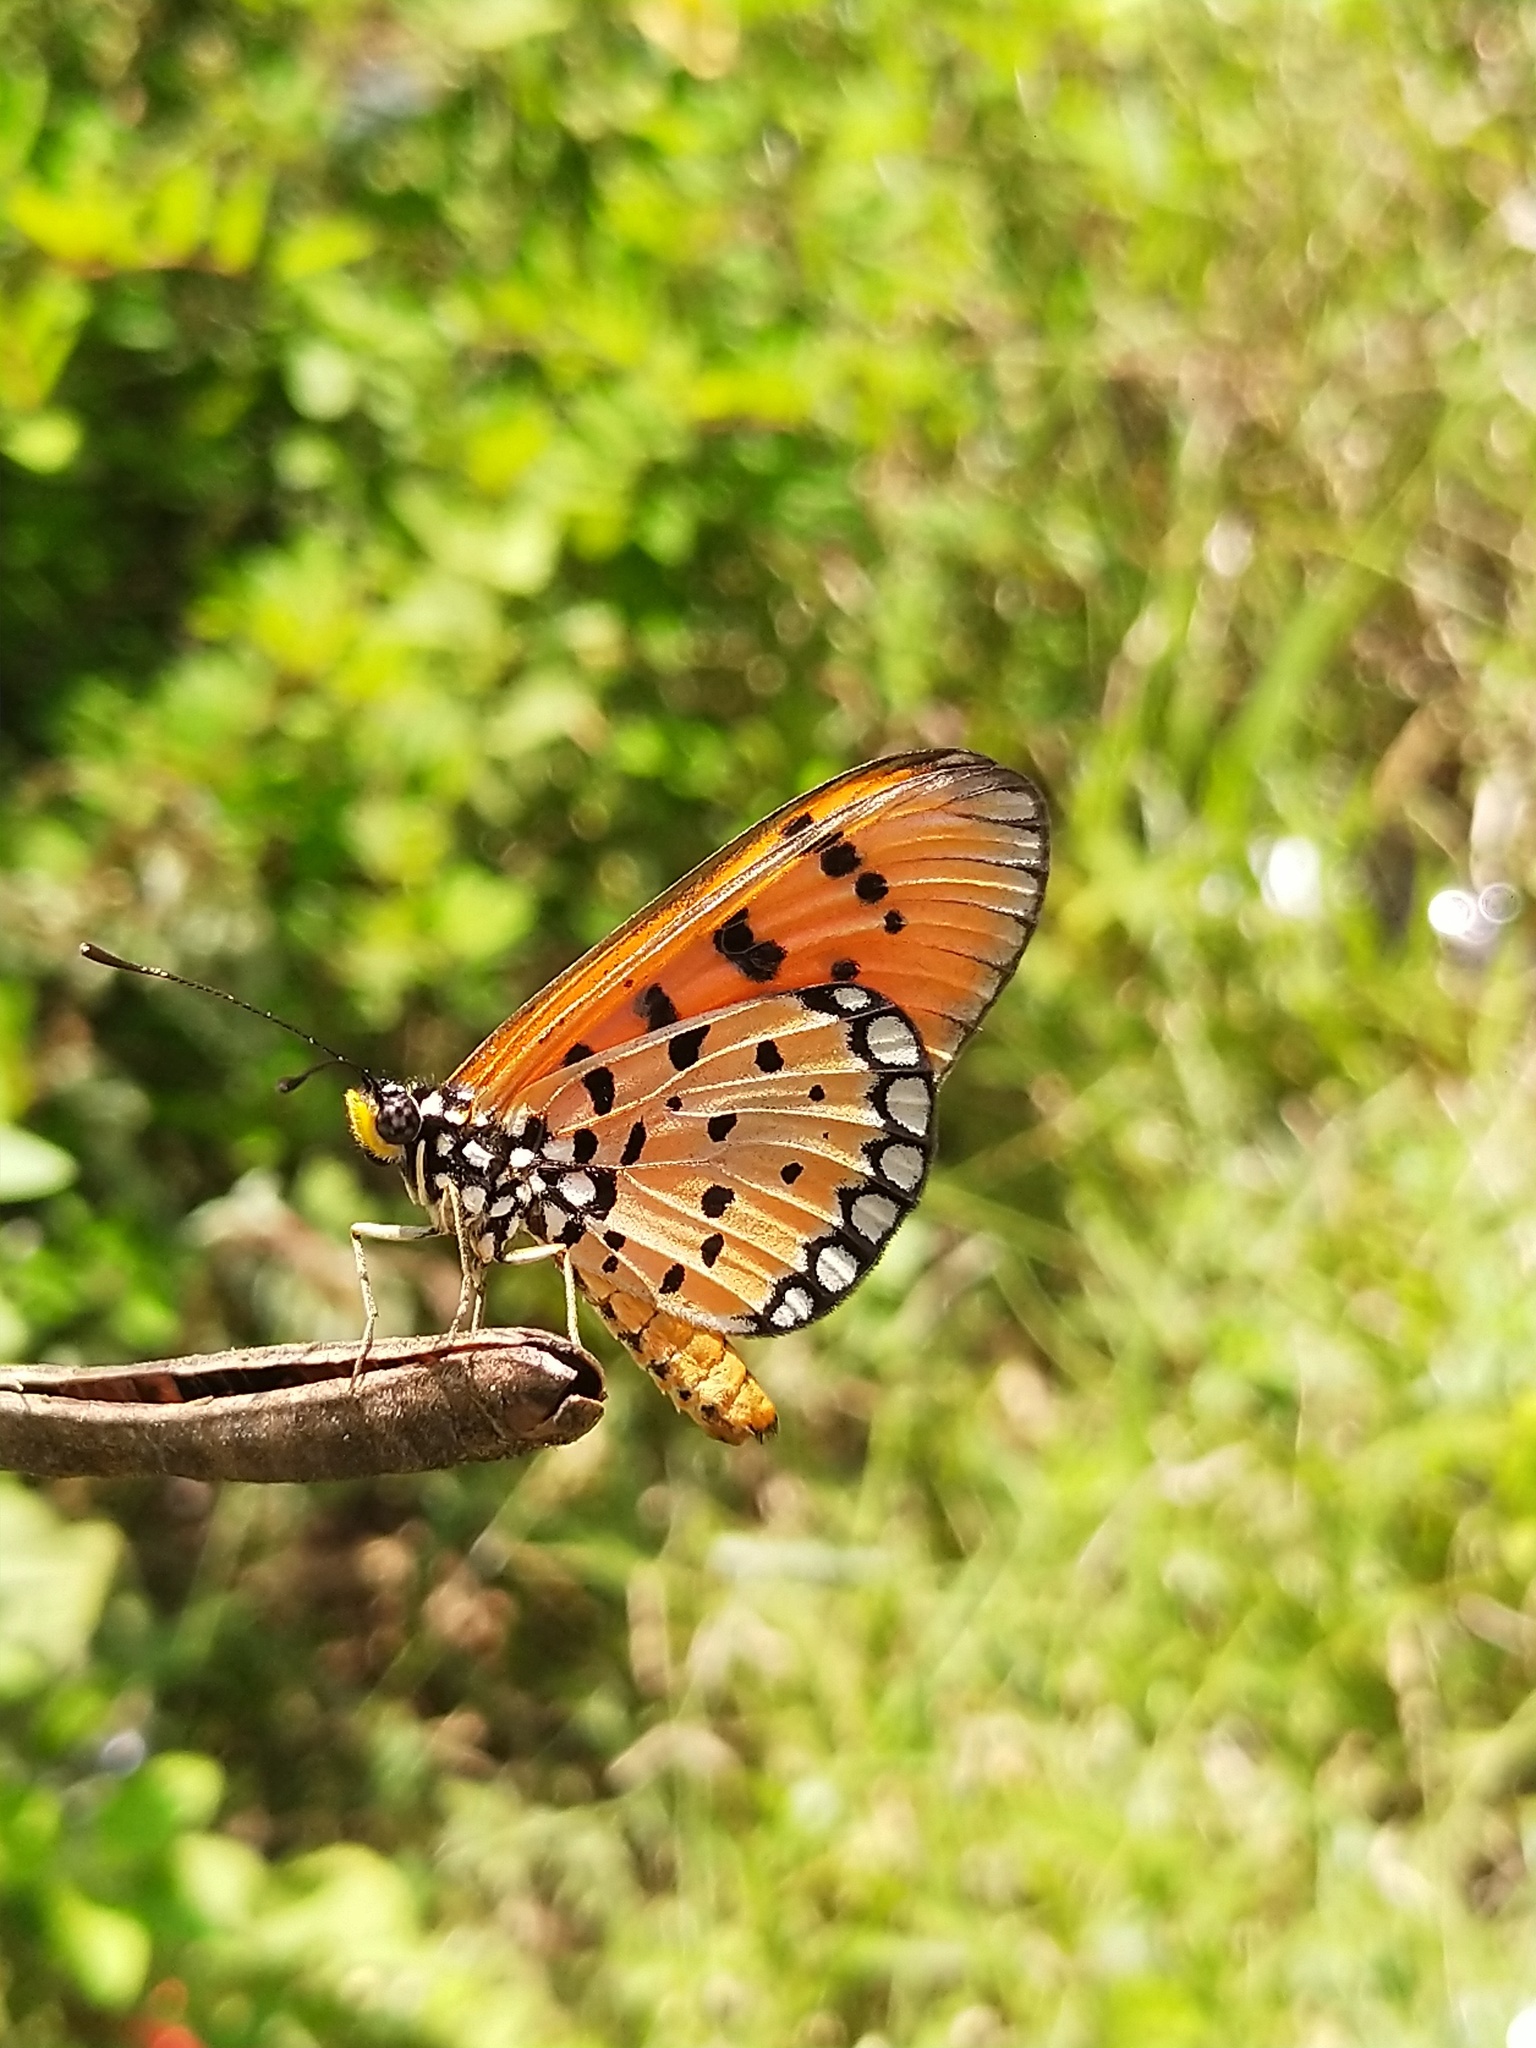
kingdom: Animalia
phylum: Arthropoda
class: Insecta
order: Lepidoptera
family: Nymphalidae
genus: Acraea
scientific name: Acraea terpsicore
